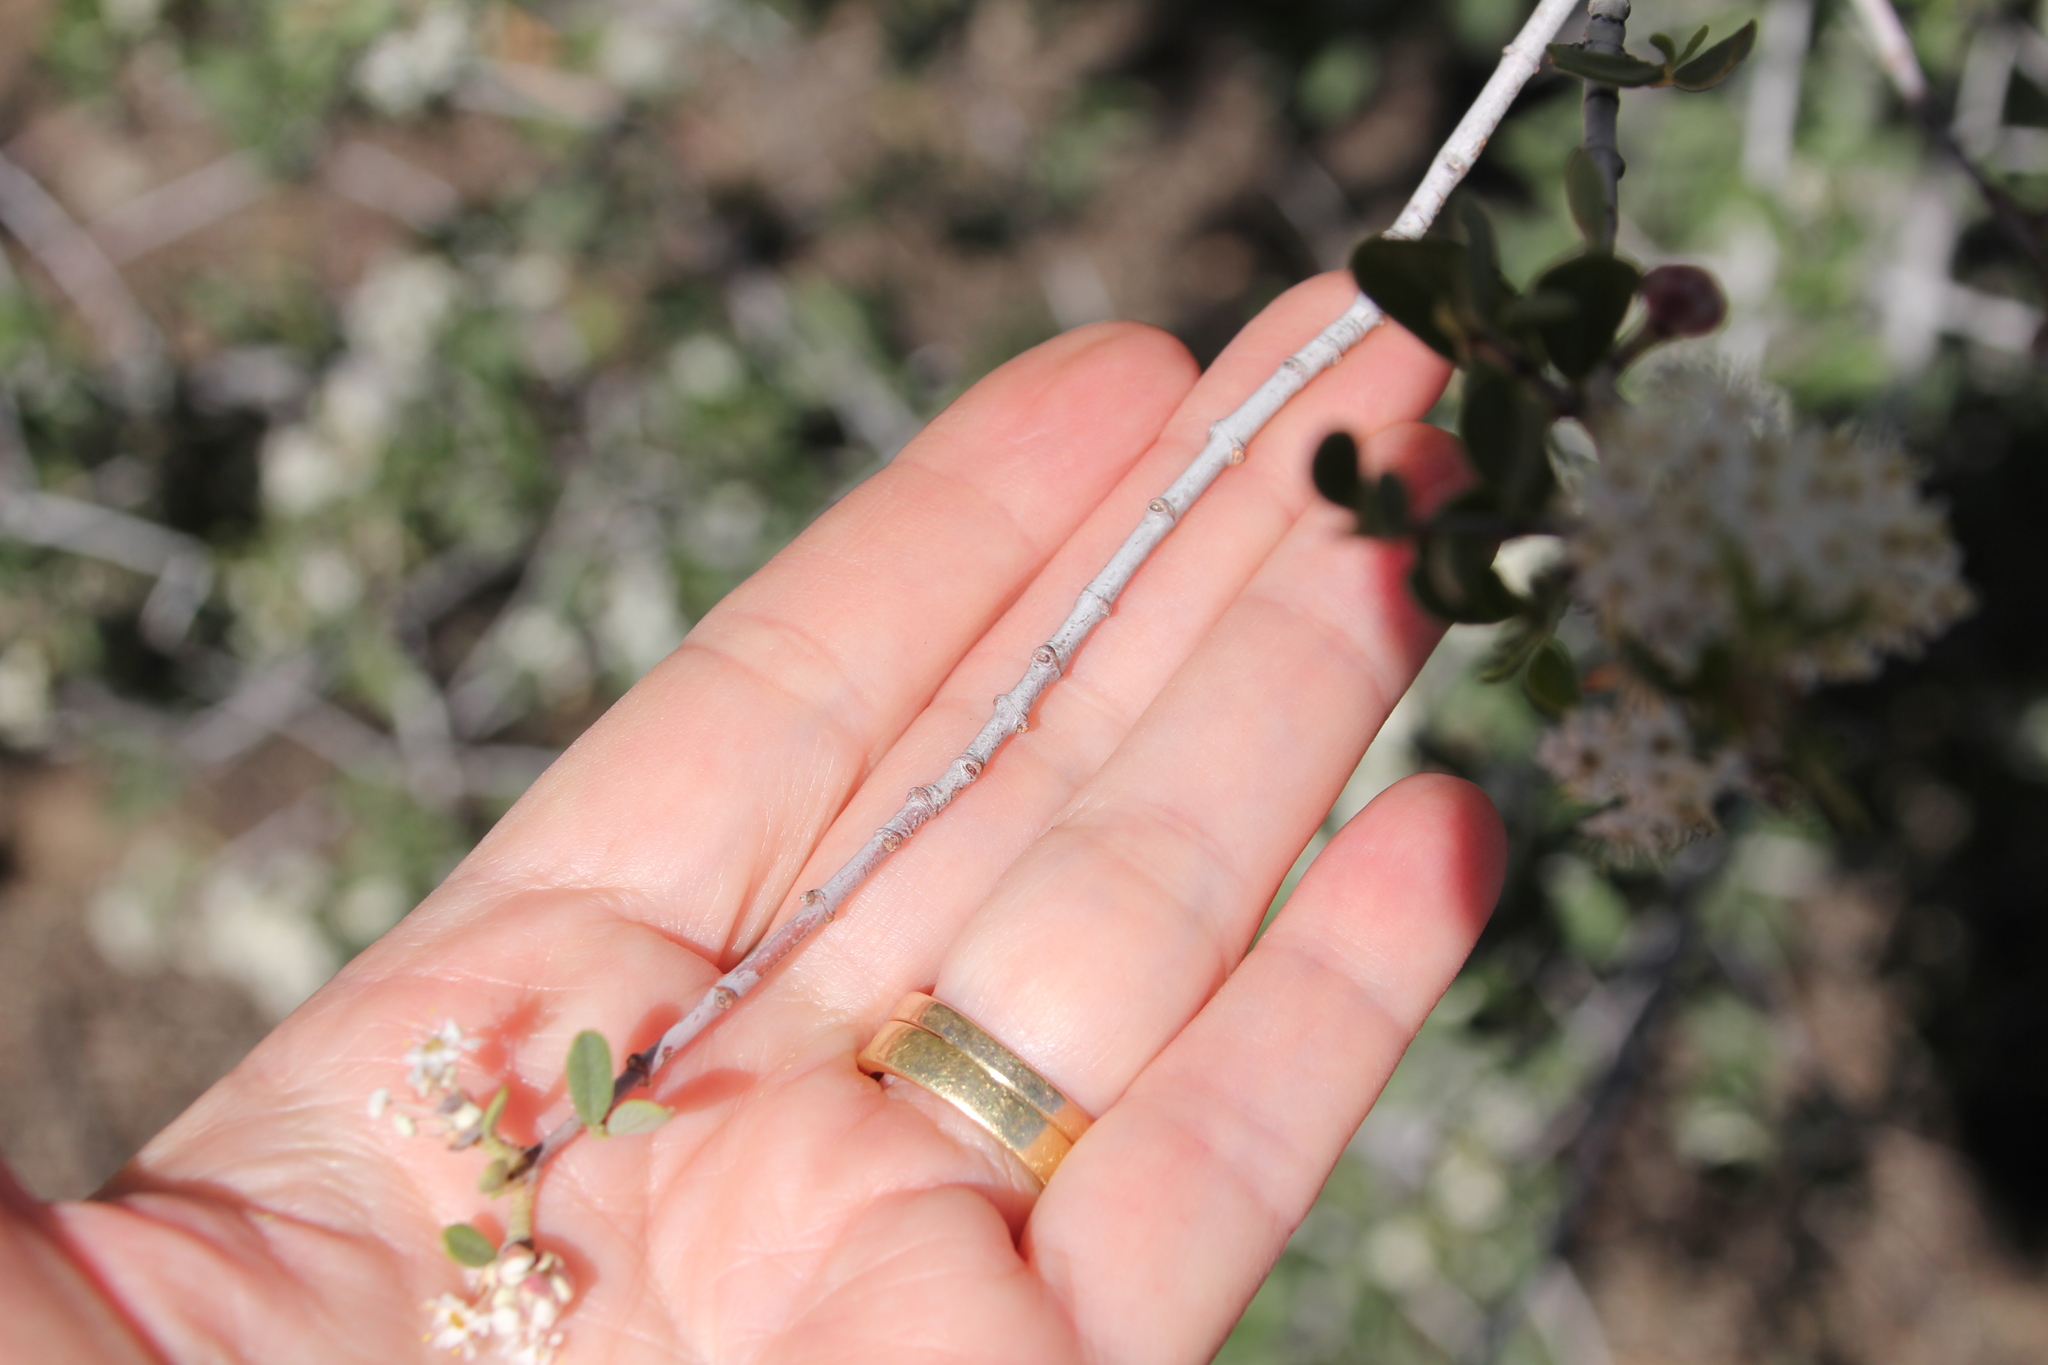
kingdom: Plantae
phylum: Tracheophyta
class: Magnoliopsida
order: Rosales
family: Rhamnaceae
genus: Ceanothus
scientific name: Ceanothus perplexans
